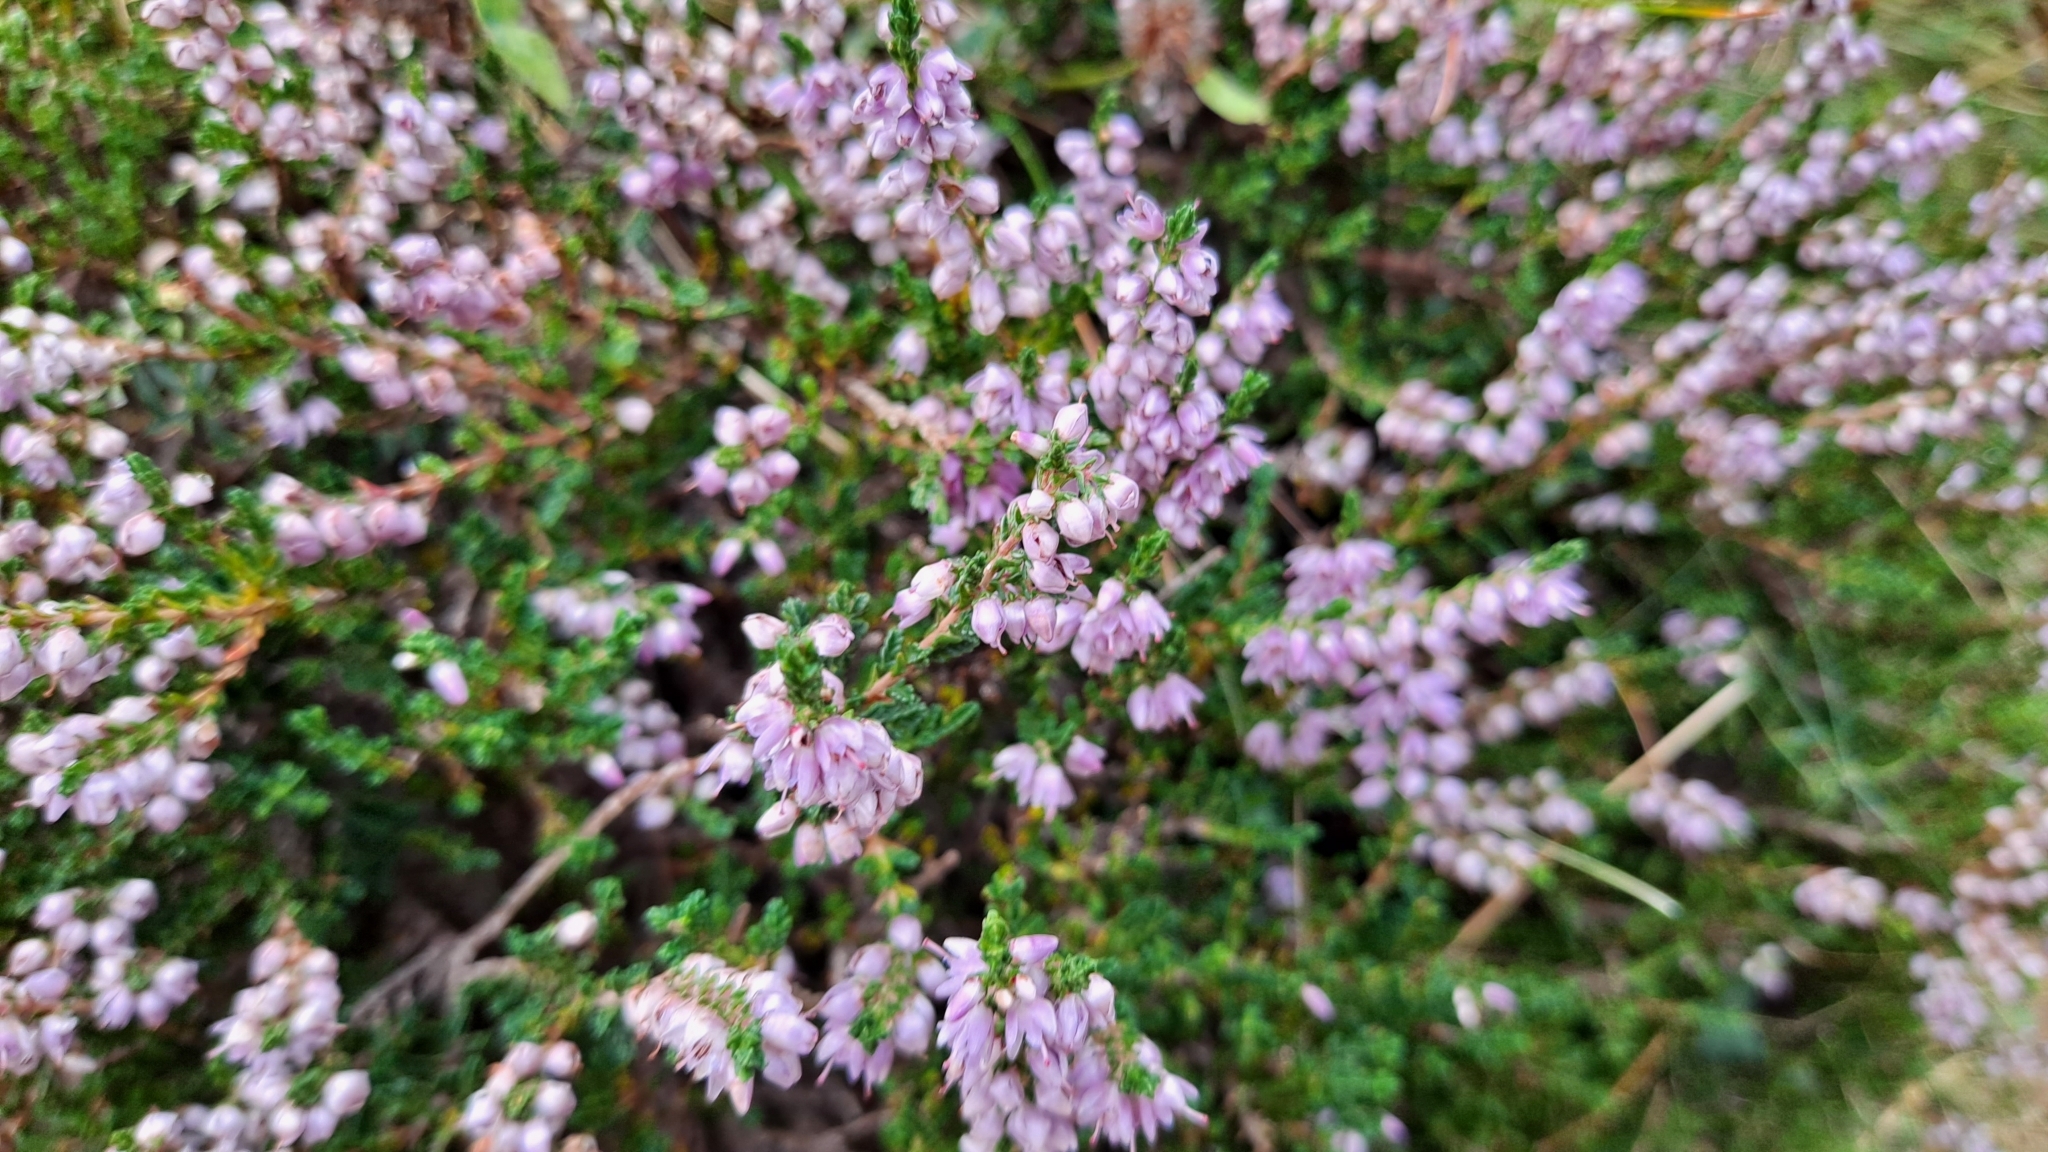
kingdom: Plantae
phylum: Tracheophyta
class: Magnoliopsida
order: Ericales
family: Ericaceae
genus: Calluna
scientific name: Calluna vulgaris
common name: Heather
